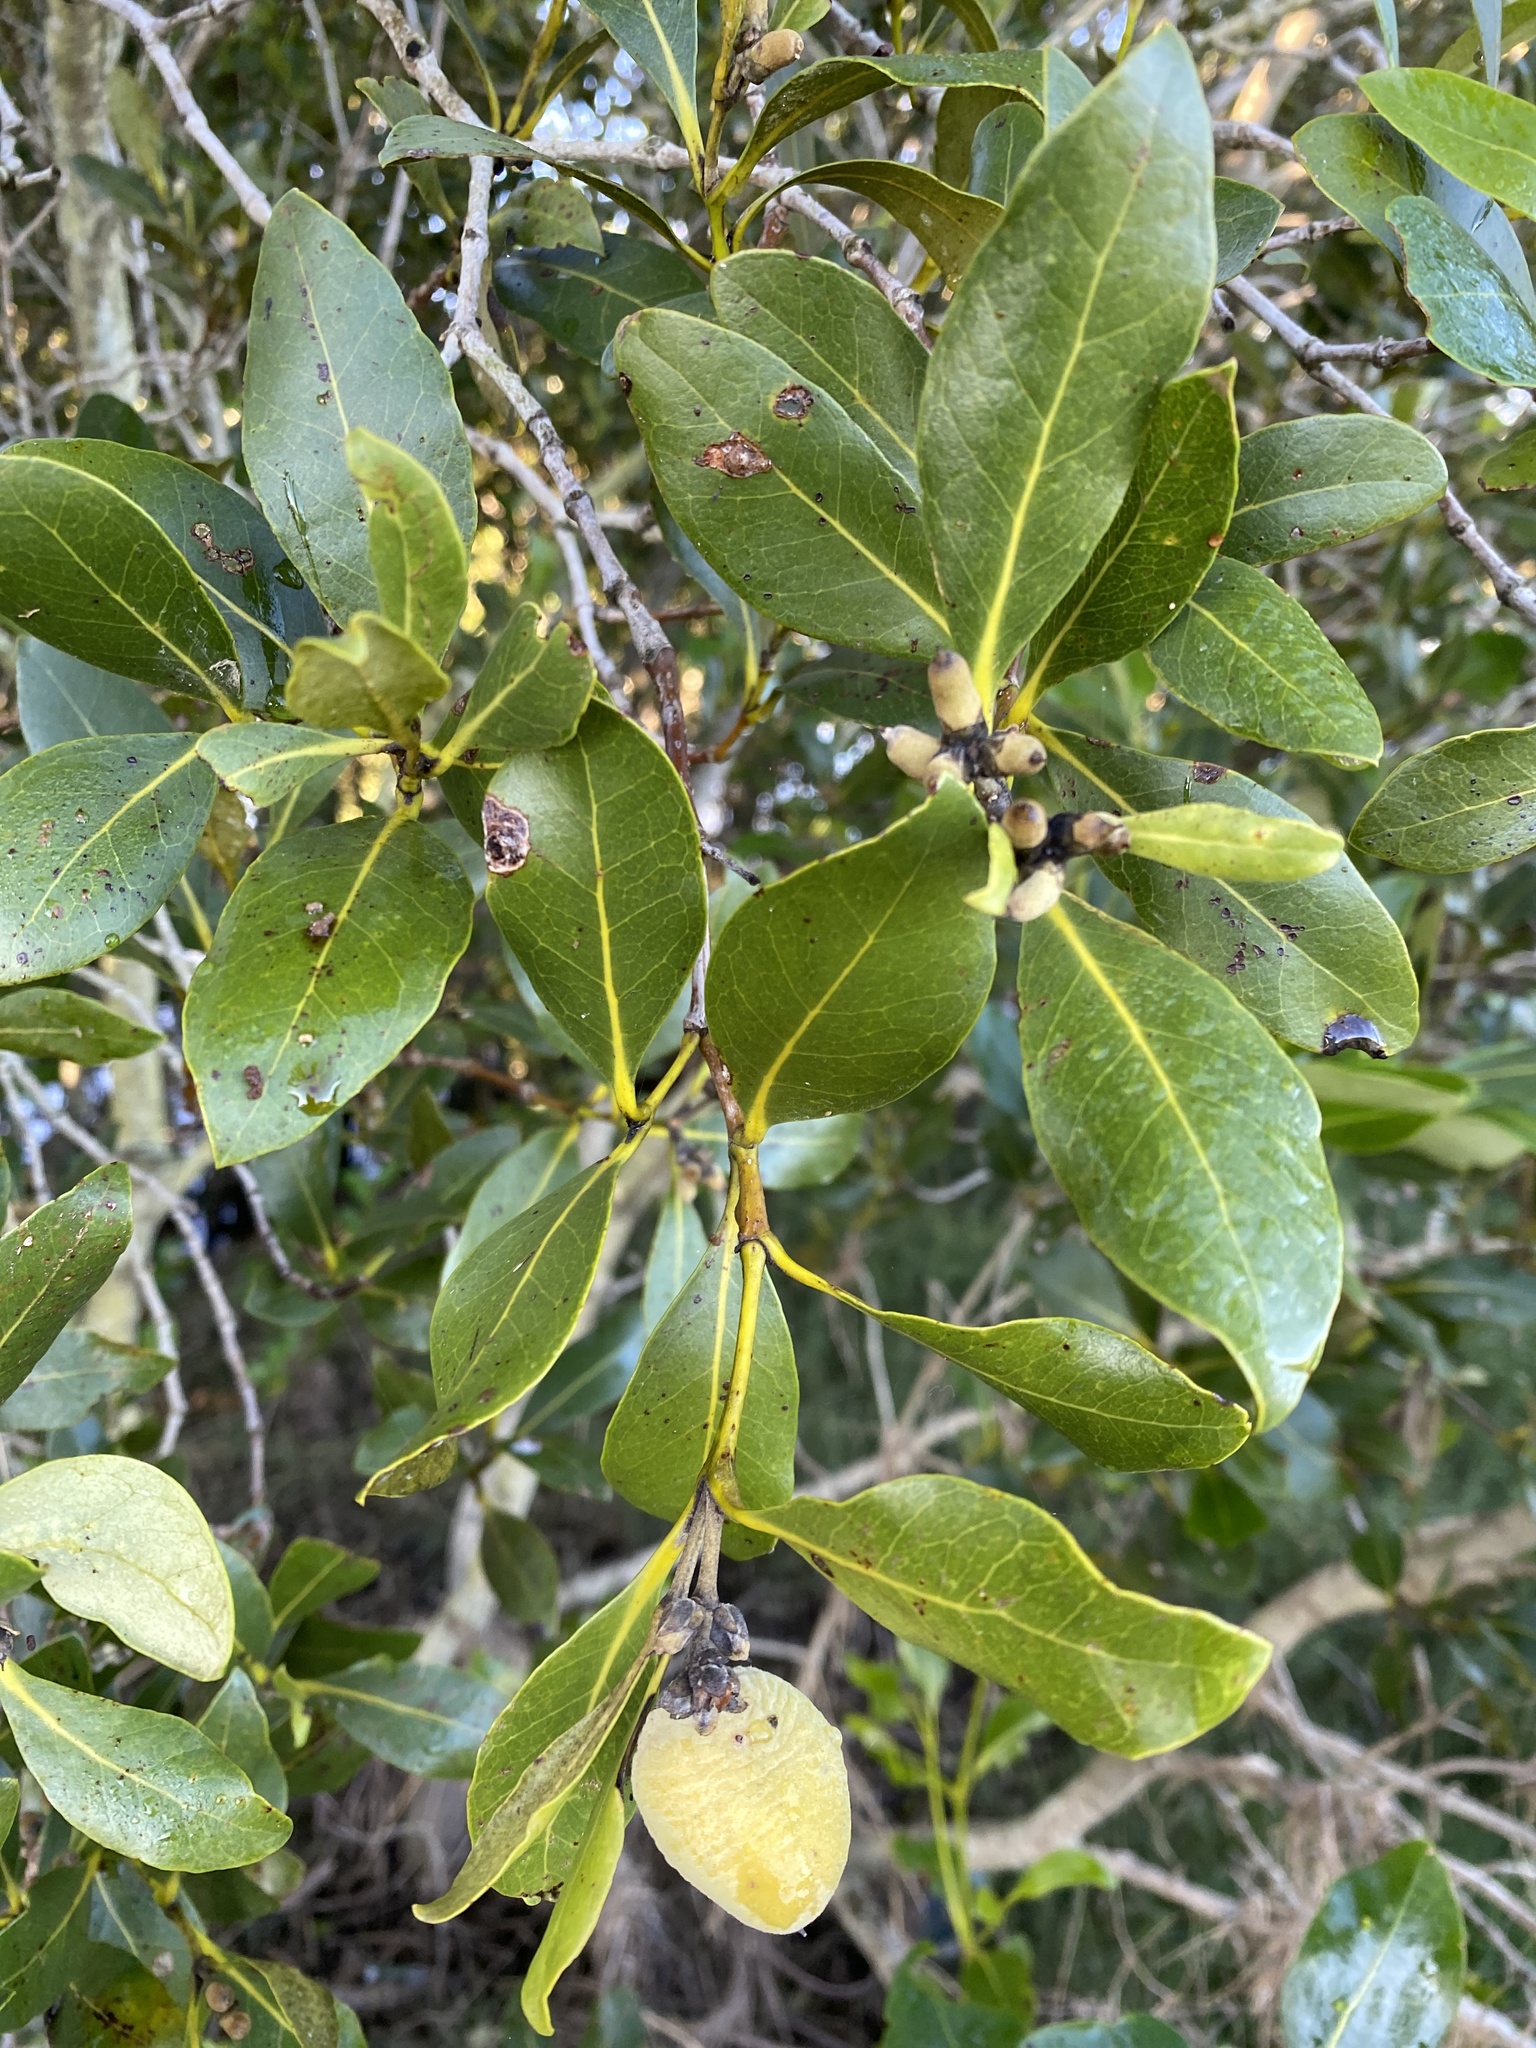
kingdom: Plantae
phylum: Tracheophyta
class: Magnoliopsida
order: Lamiales
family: Acanthaceae
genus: Avicennia
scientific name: Avicennia marina
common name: Gray mangrove
